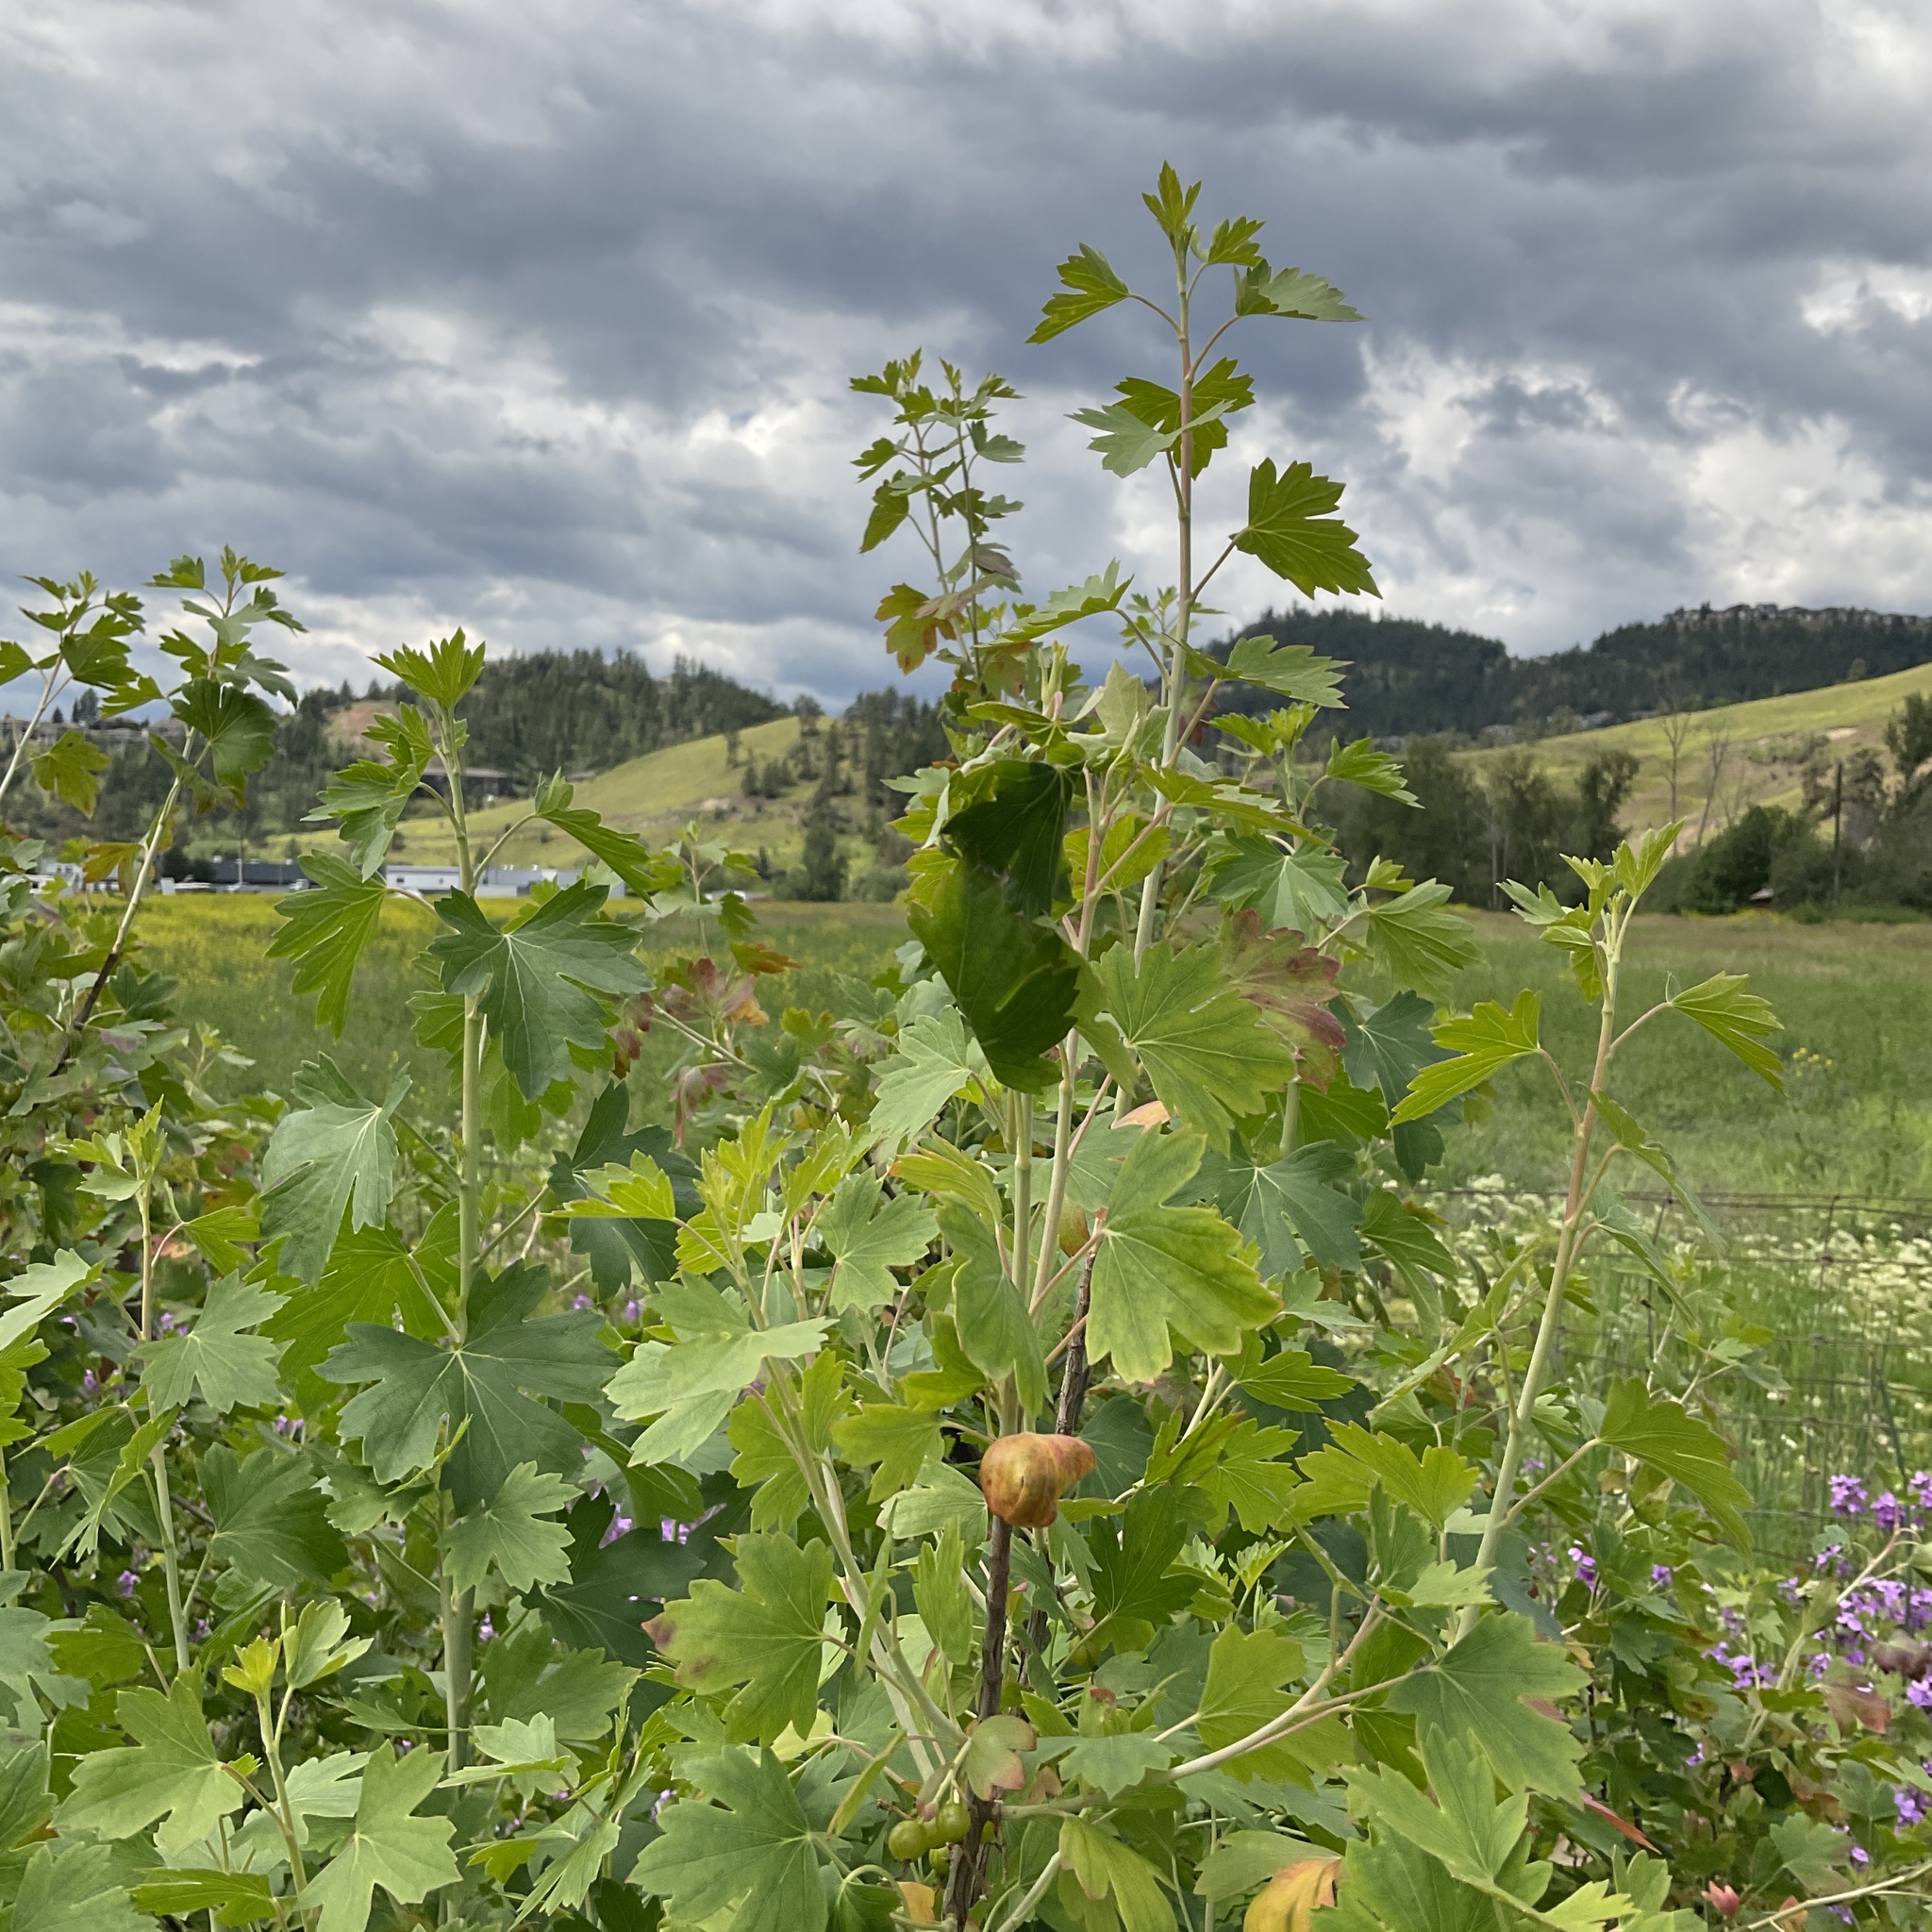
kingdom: Plantae
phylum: Tracheophyta
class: Magnoliopsida
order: Saxifragales
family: Grossulariaceae
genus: Ribes
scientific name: Ribes aureum
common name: Golden currant
